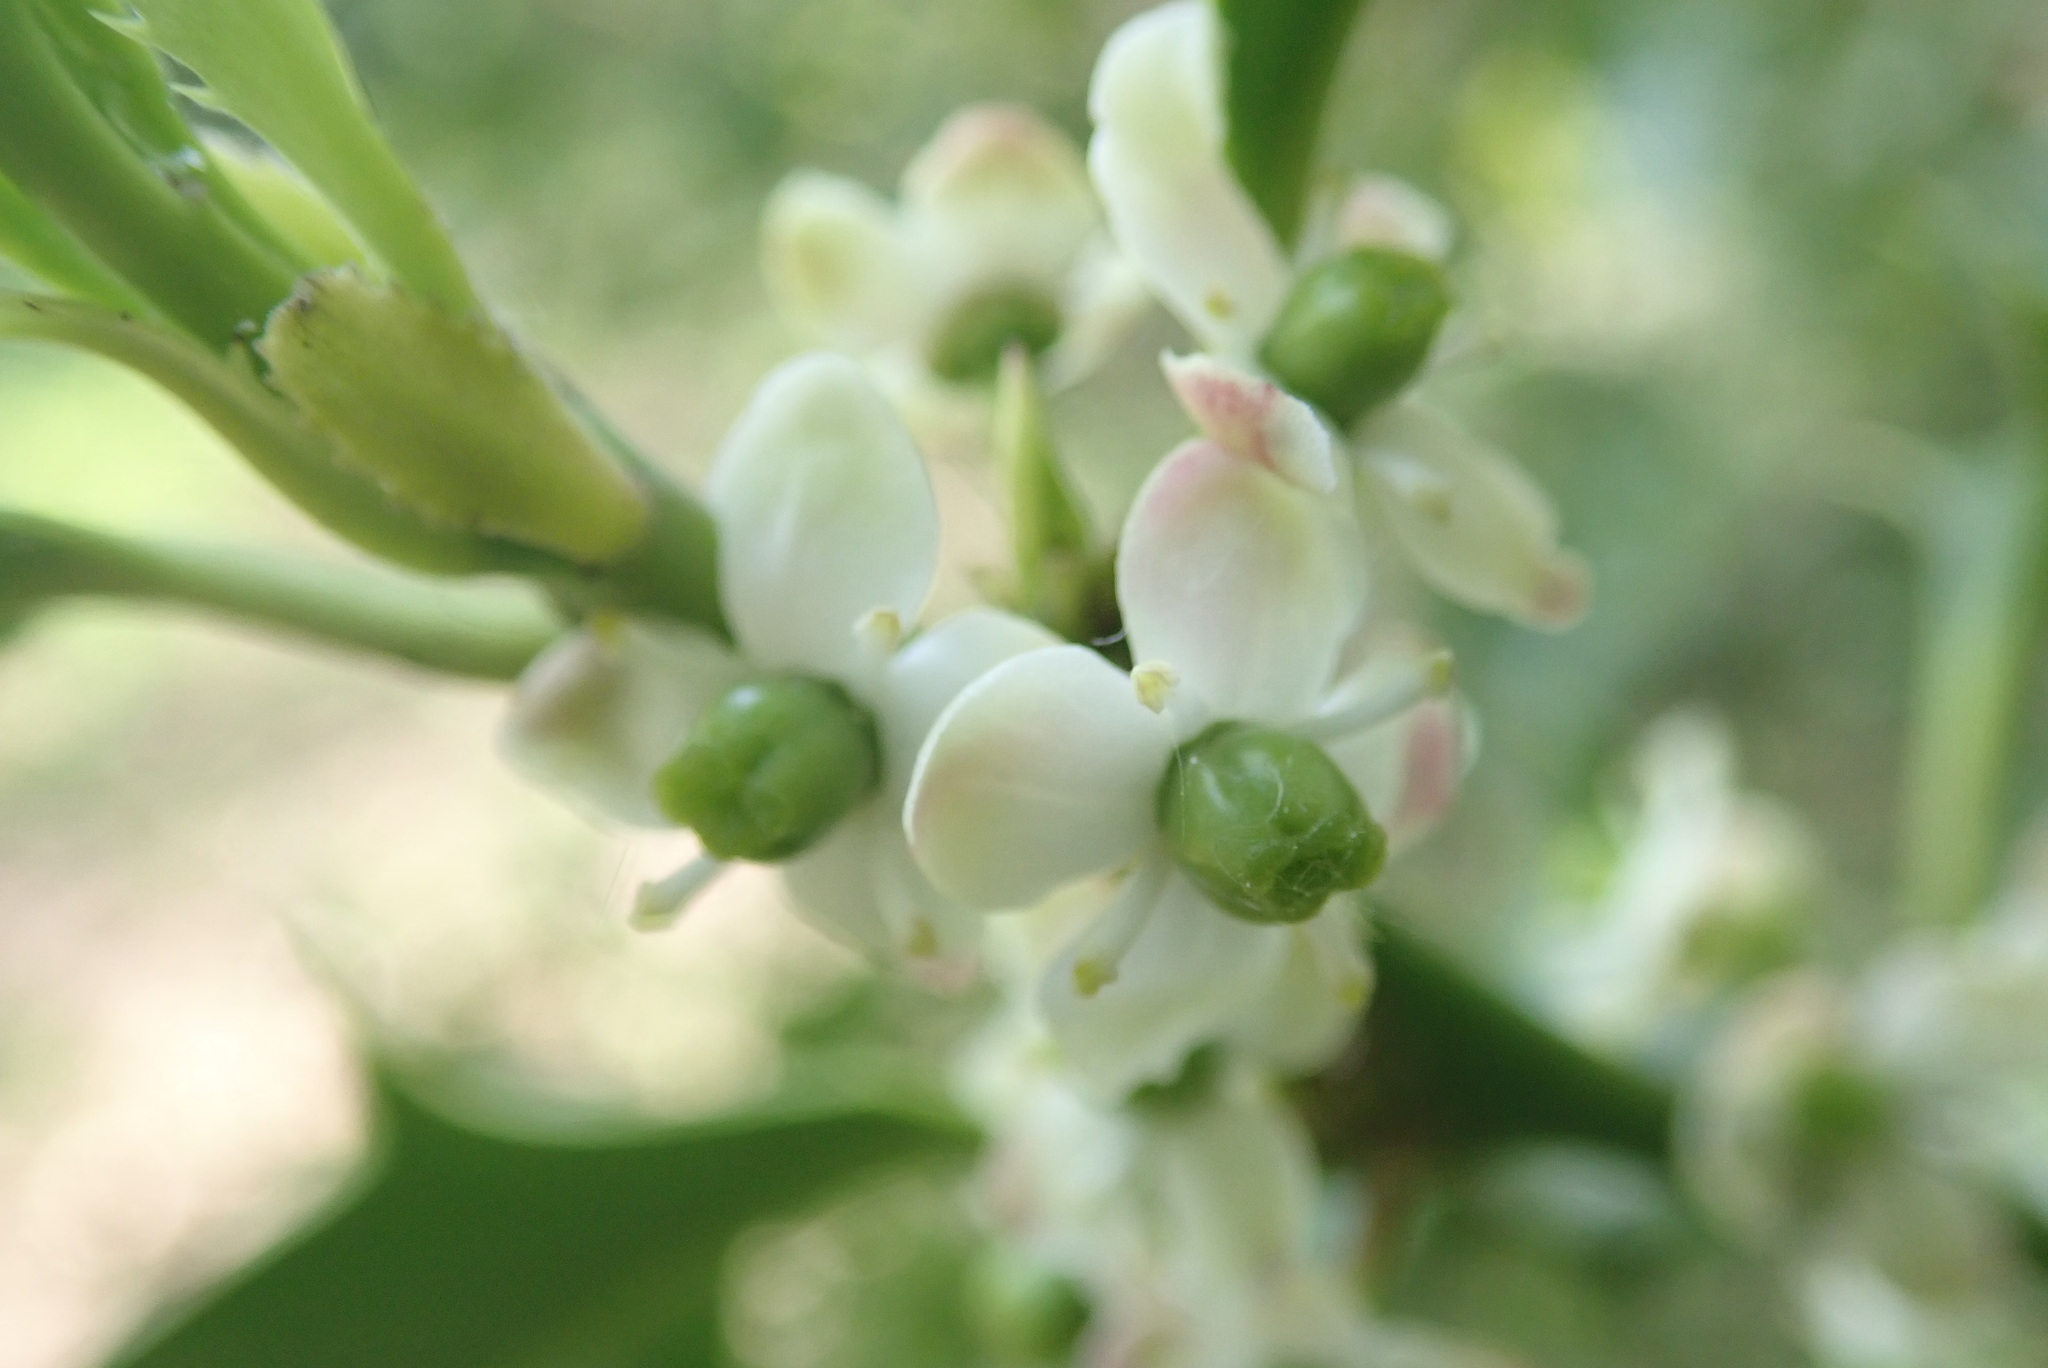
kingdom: Plantae
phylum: Tracheophyta
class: Magnoliopsida
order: Aquifoliales
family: Aquifoliaceae
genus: Ilex
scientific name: Ilex aquifolium
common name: English holly
